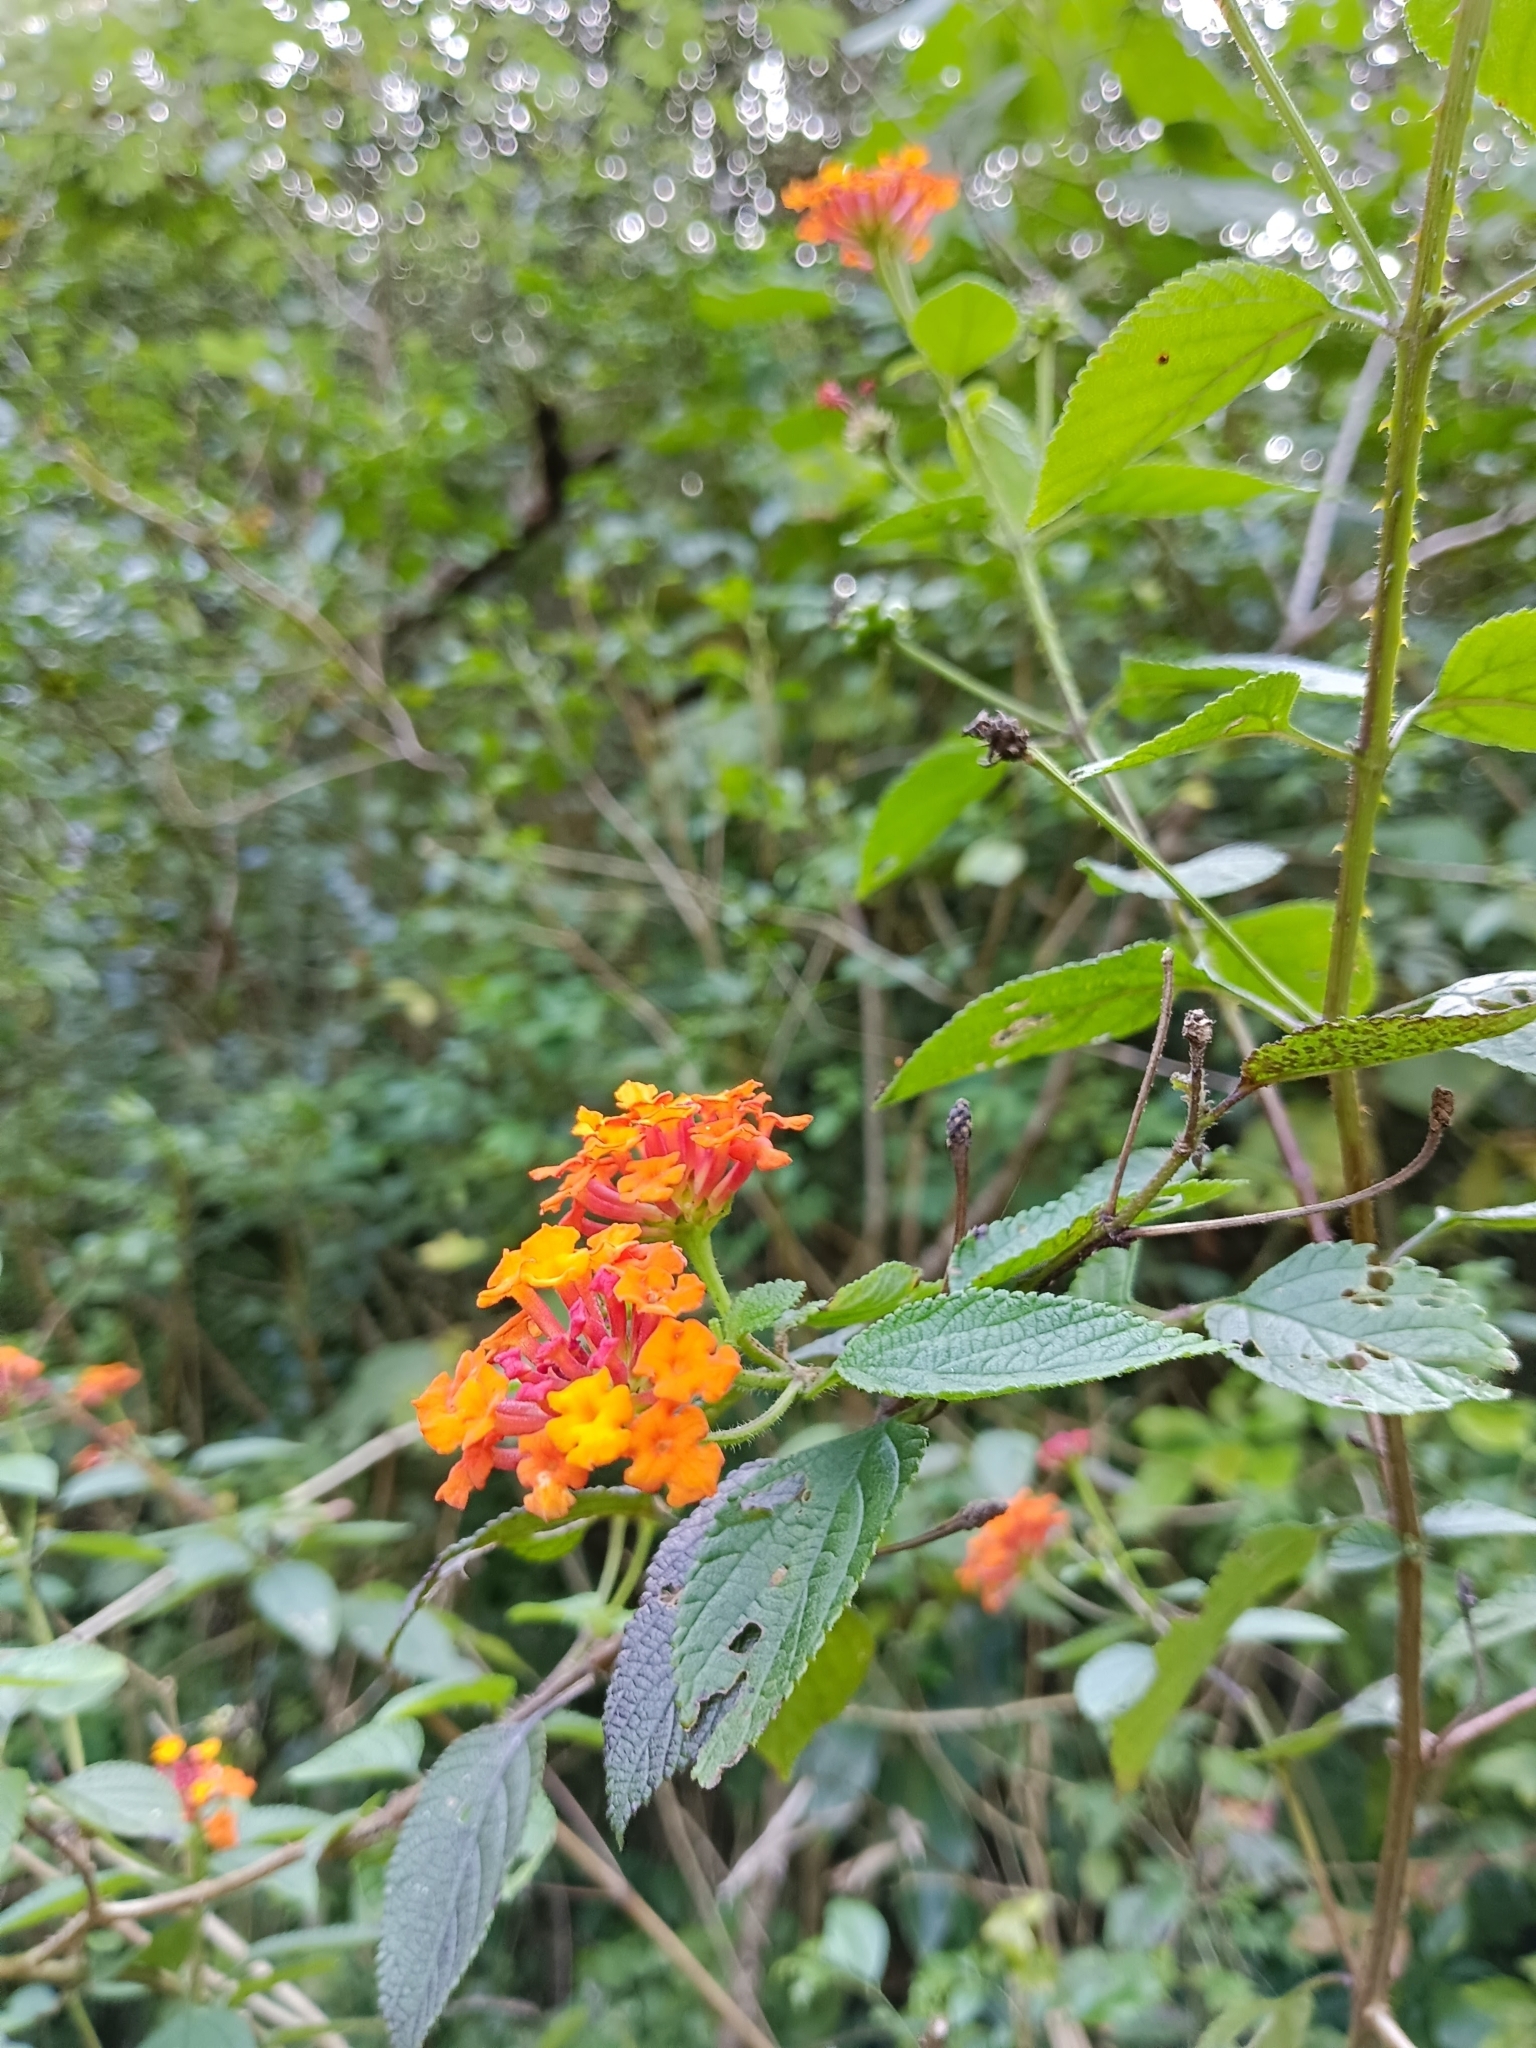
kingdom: Plantae
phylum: Tracheophyta
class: Magnoliopsida
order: Lamiales
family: Verbenaceae
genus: Lantana
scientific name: Lantana camara
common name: Lantana
